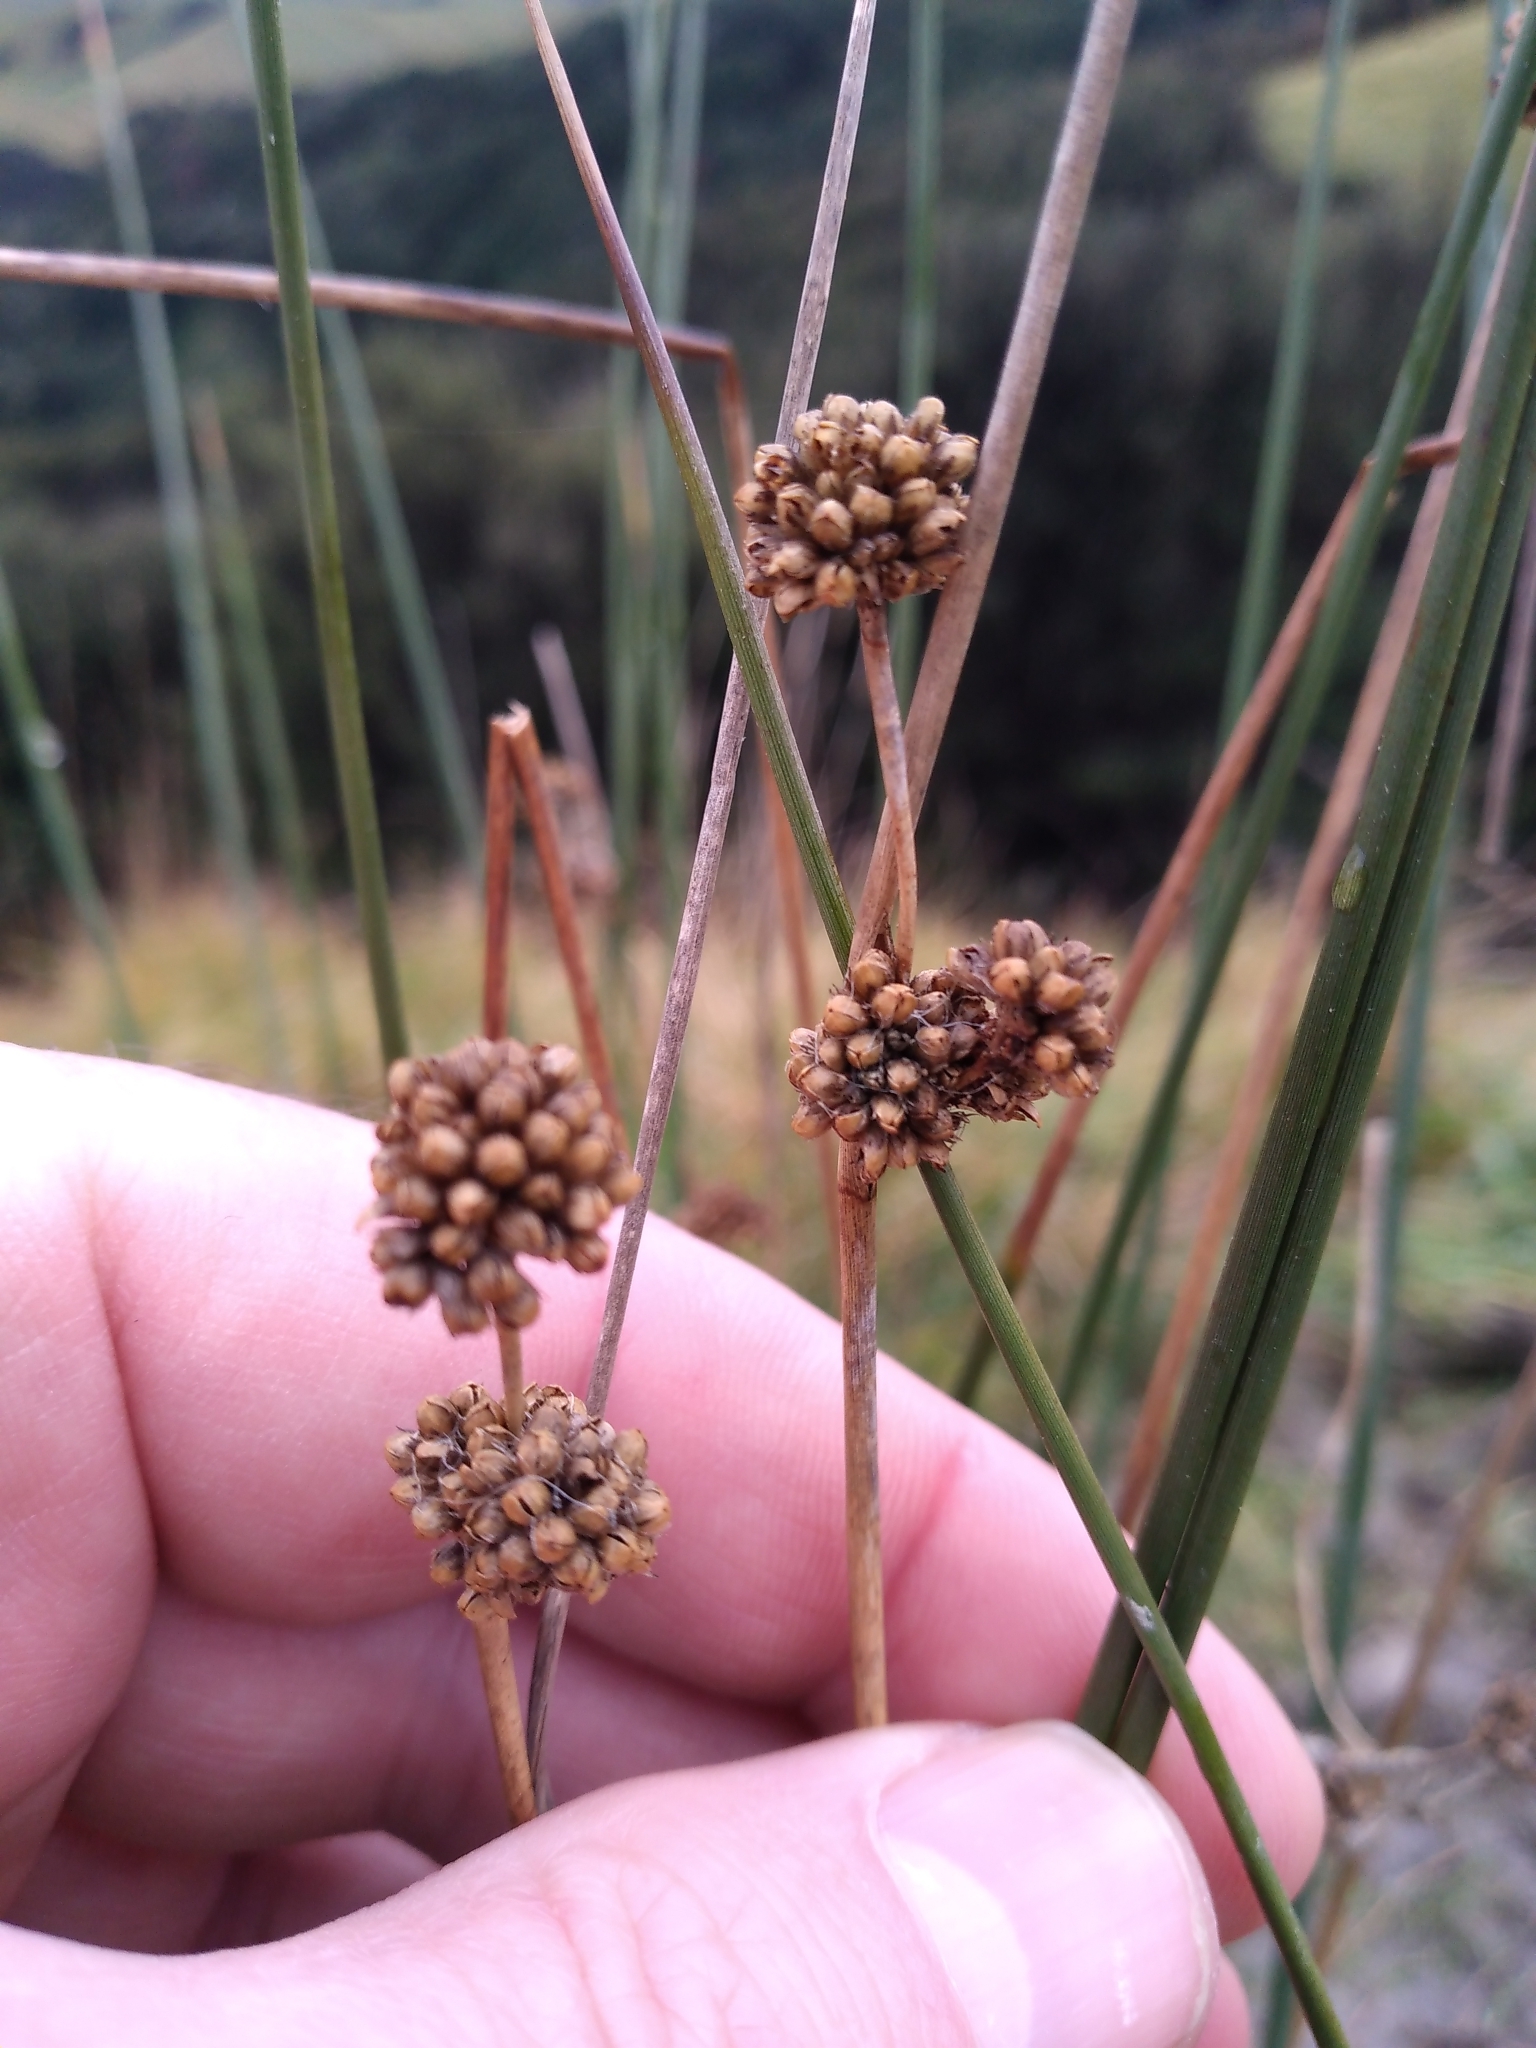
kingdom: Plantae
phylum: Tracheophyta
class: Liliopsida
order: Poales
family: Juncaceae
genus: Juncus
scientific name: Juncus australis
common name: Austral rush
